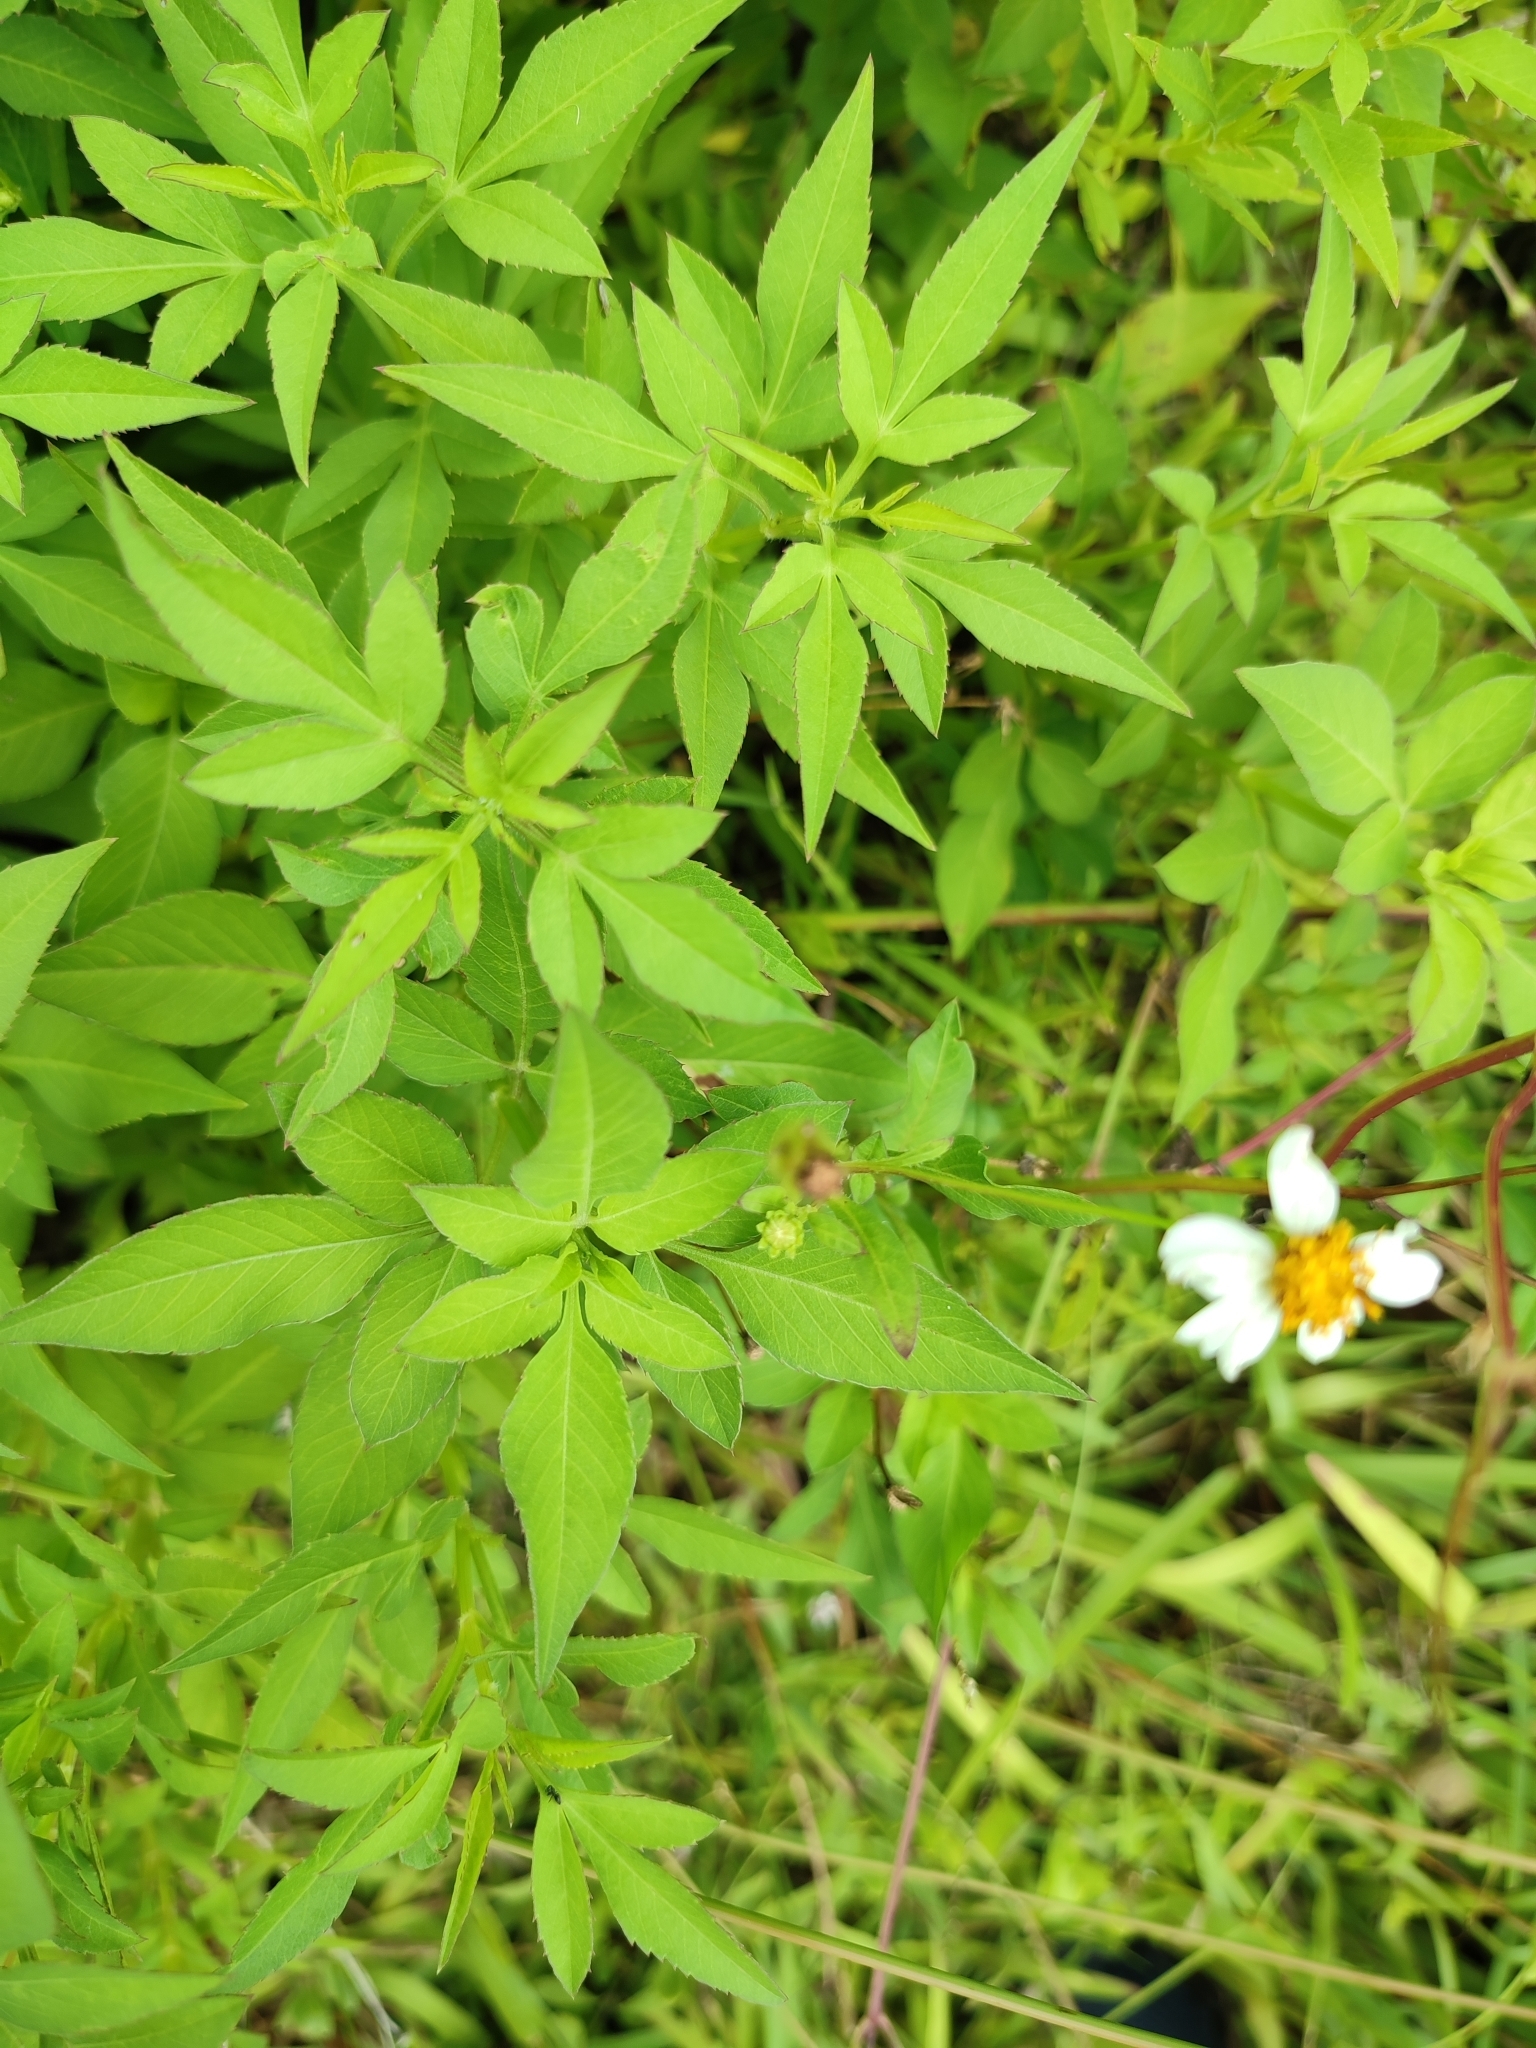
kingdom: Plantae
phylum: Tracheophyta
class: Magnoliopsida
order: Asterales
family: Asteraceae
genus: Bidens
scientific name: Bidens alba
